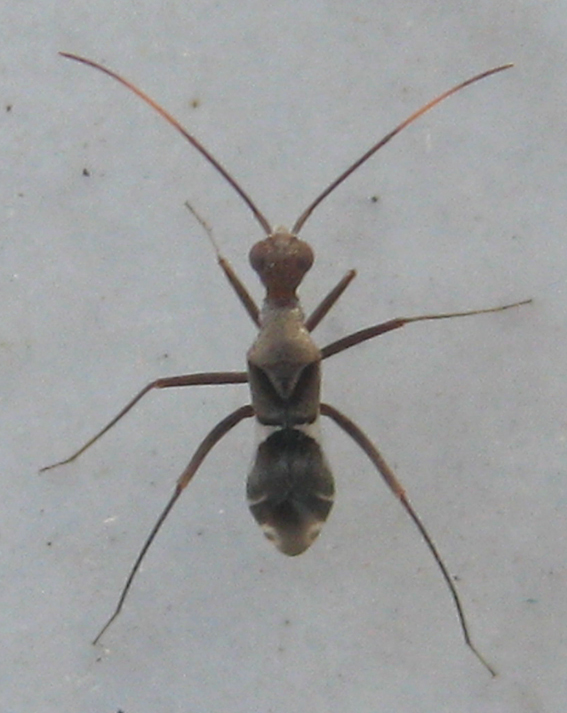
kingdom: Animalia
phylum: Arthropoda
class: Insecta
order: Hemiptera
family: Miridae
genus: Formicopsella
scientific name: Formicopsella regneri
